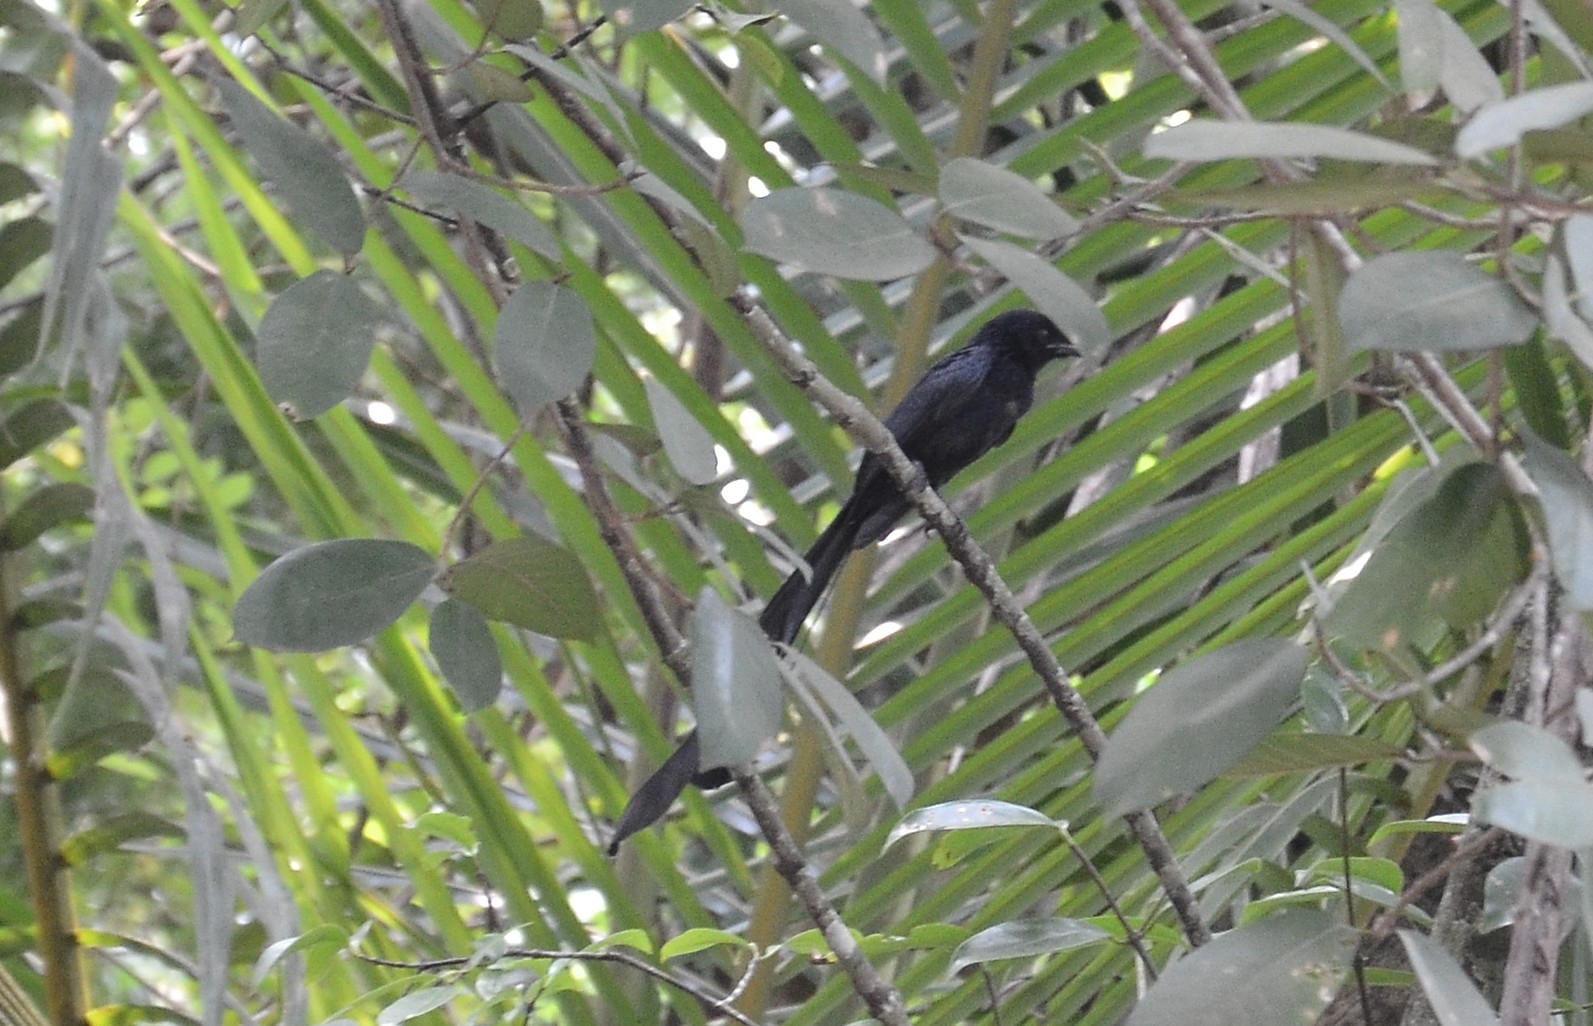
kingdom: Animalia
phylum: Chordata
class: Aves
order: Passeriformes
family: Dicruridae
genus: Dicrurus
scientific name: Dicrurus paradiseus
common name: Greater racket-tailed drongo
